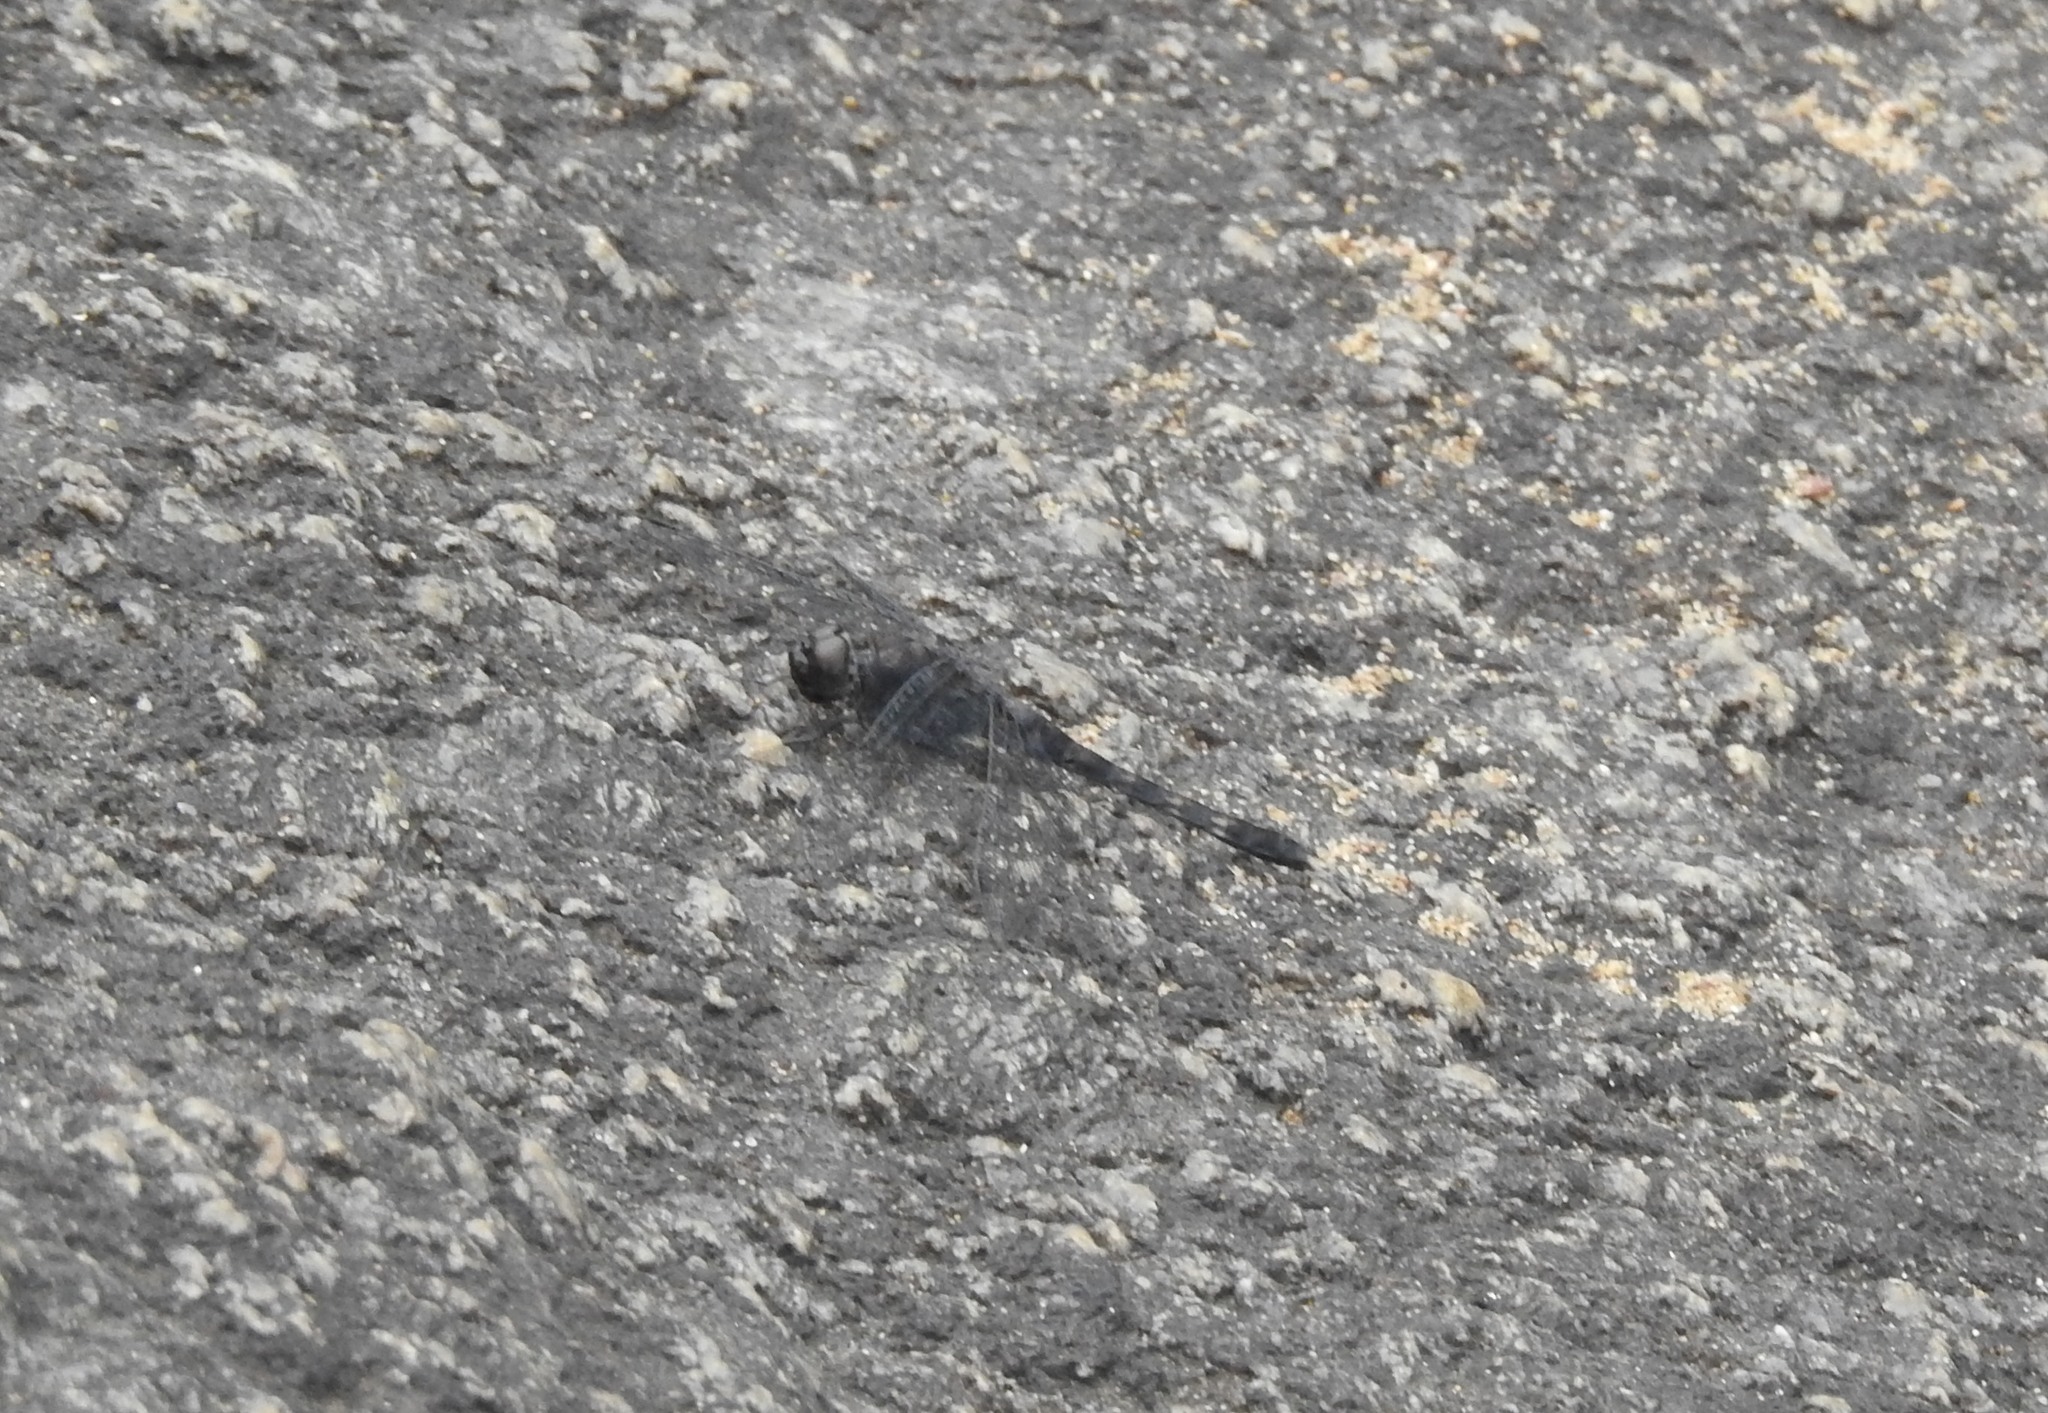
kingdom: Animalia
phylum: Arthropoda
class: Insecta
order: Odonata
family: Libellulidae
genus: Bradinopyga
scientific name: Bradinopyga geminata
